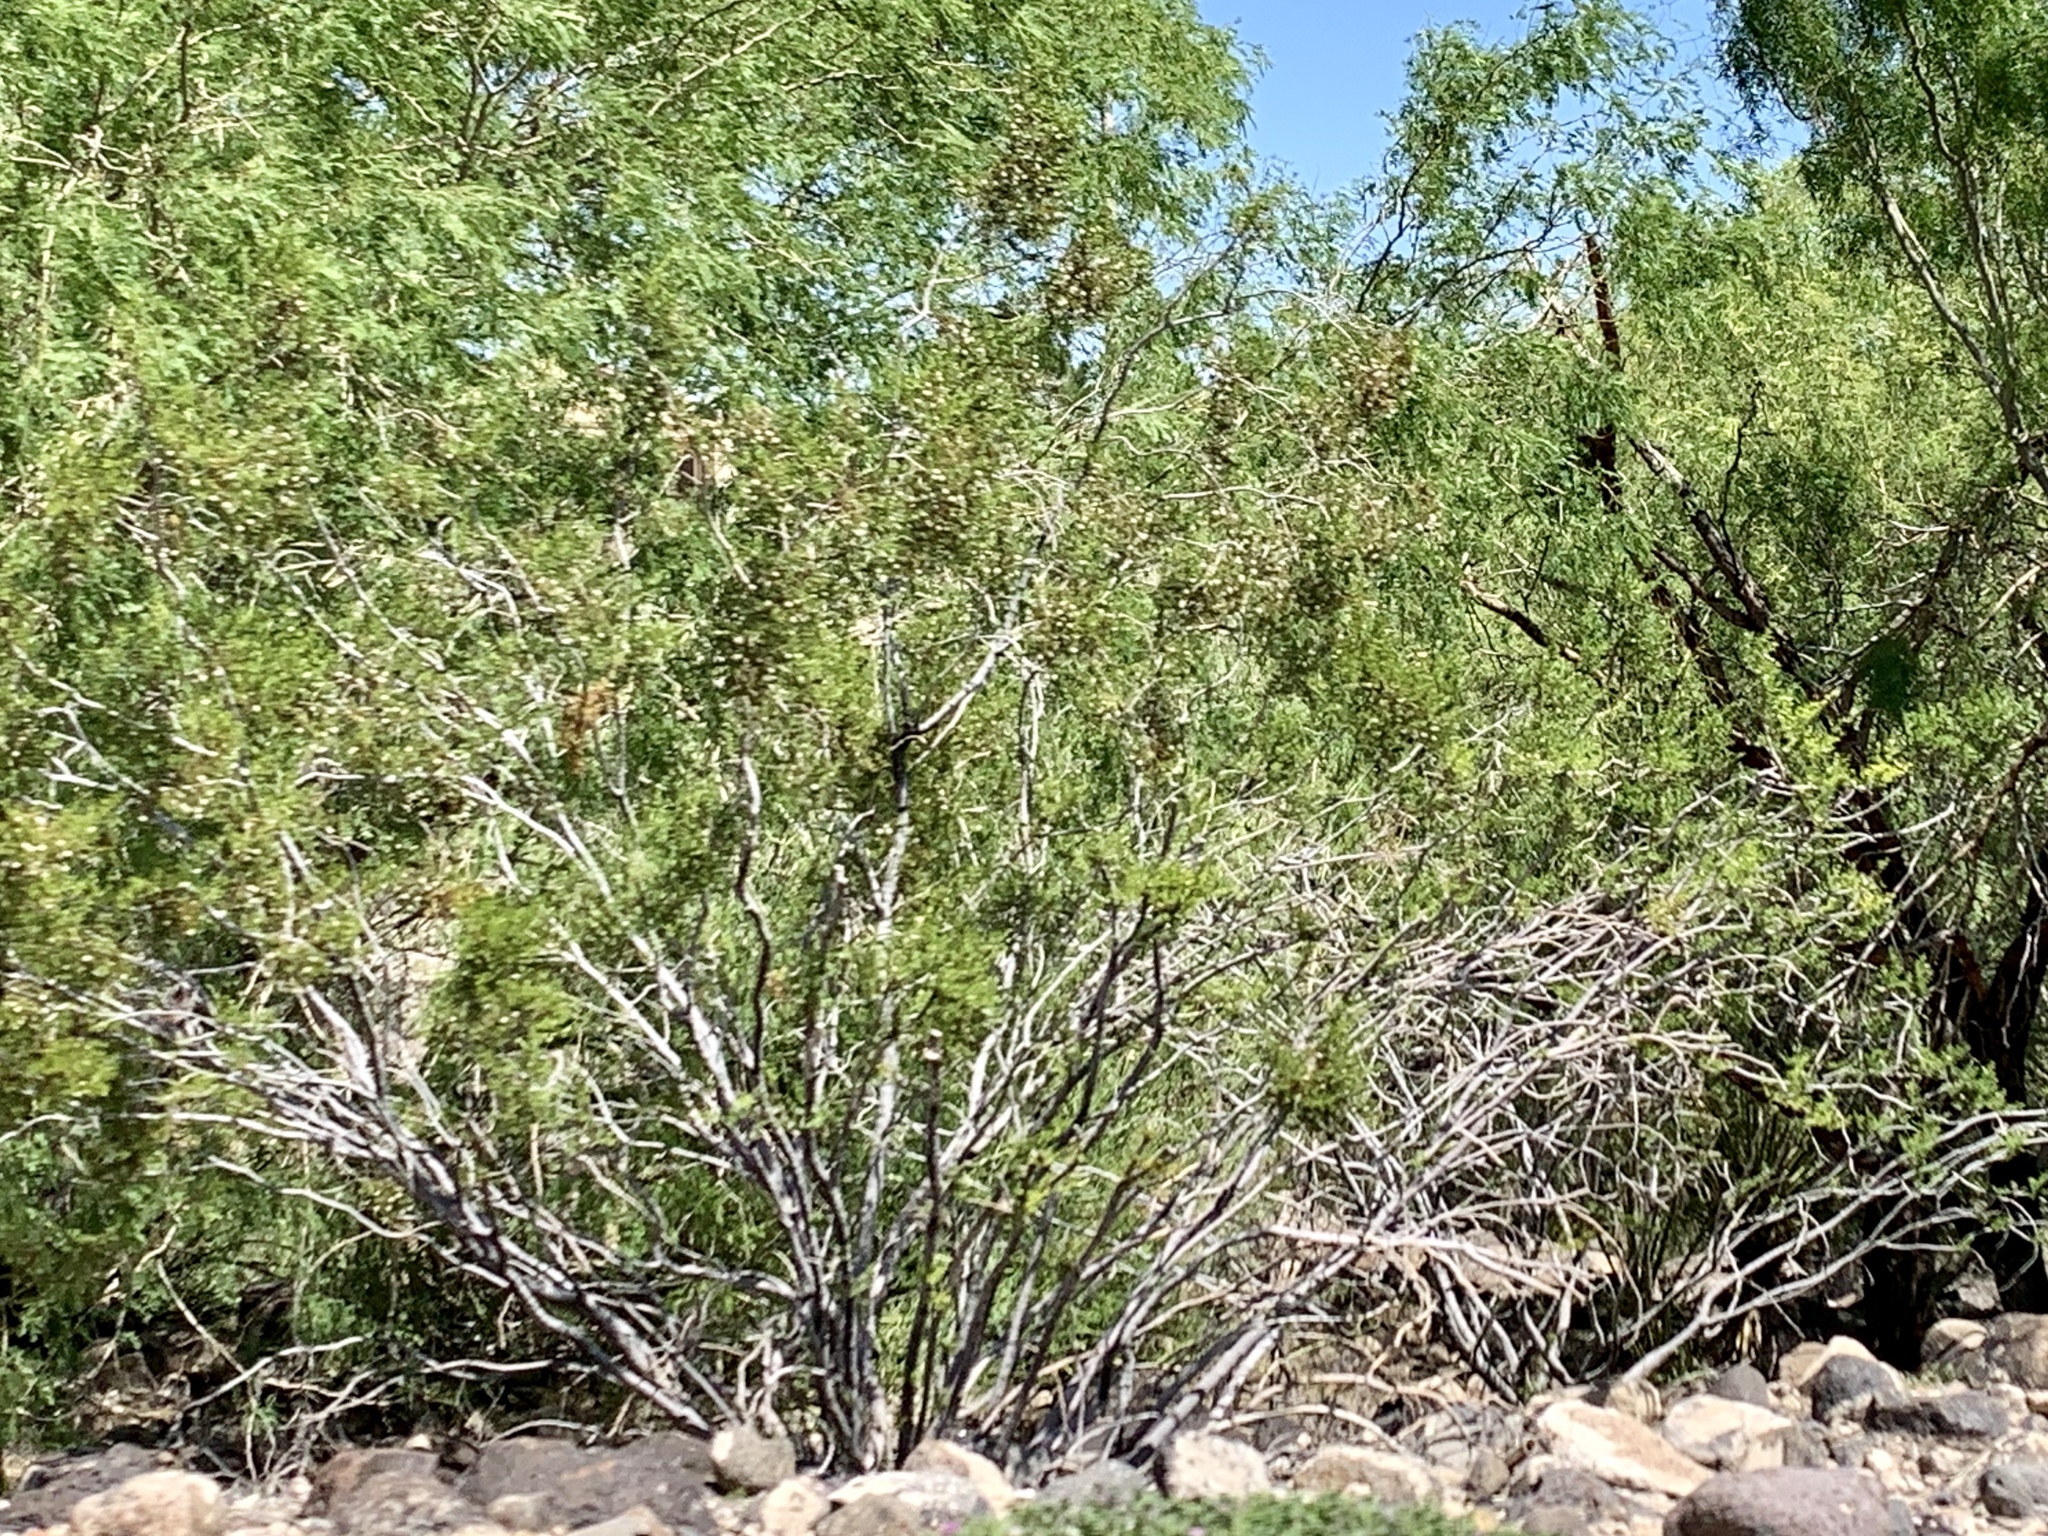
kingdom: Plantae
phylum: Tracheophyta
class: Magnoliopsida
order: Zygophyllales
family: Zygophyllaceae
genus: Larrea
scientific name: Larrea tridentata
